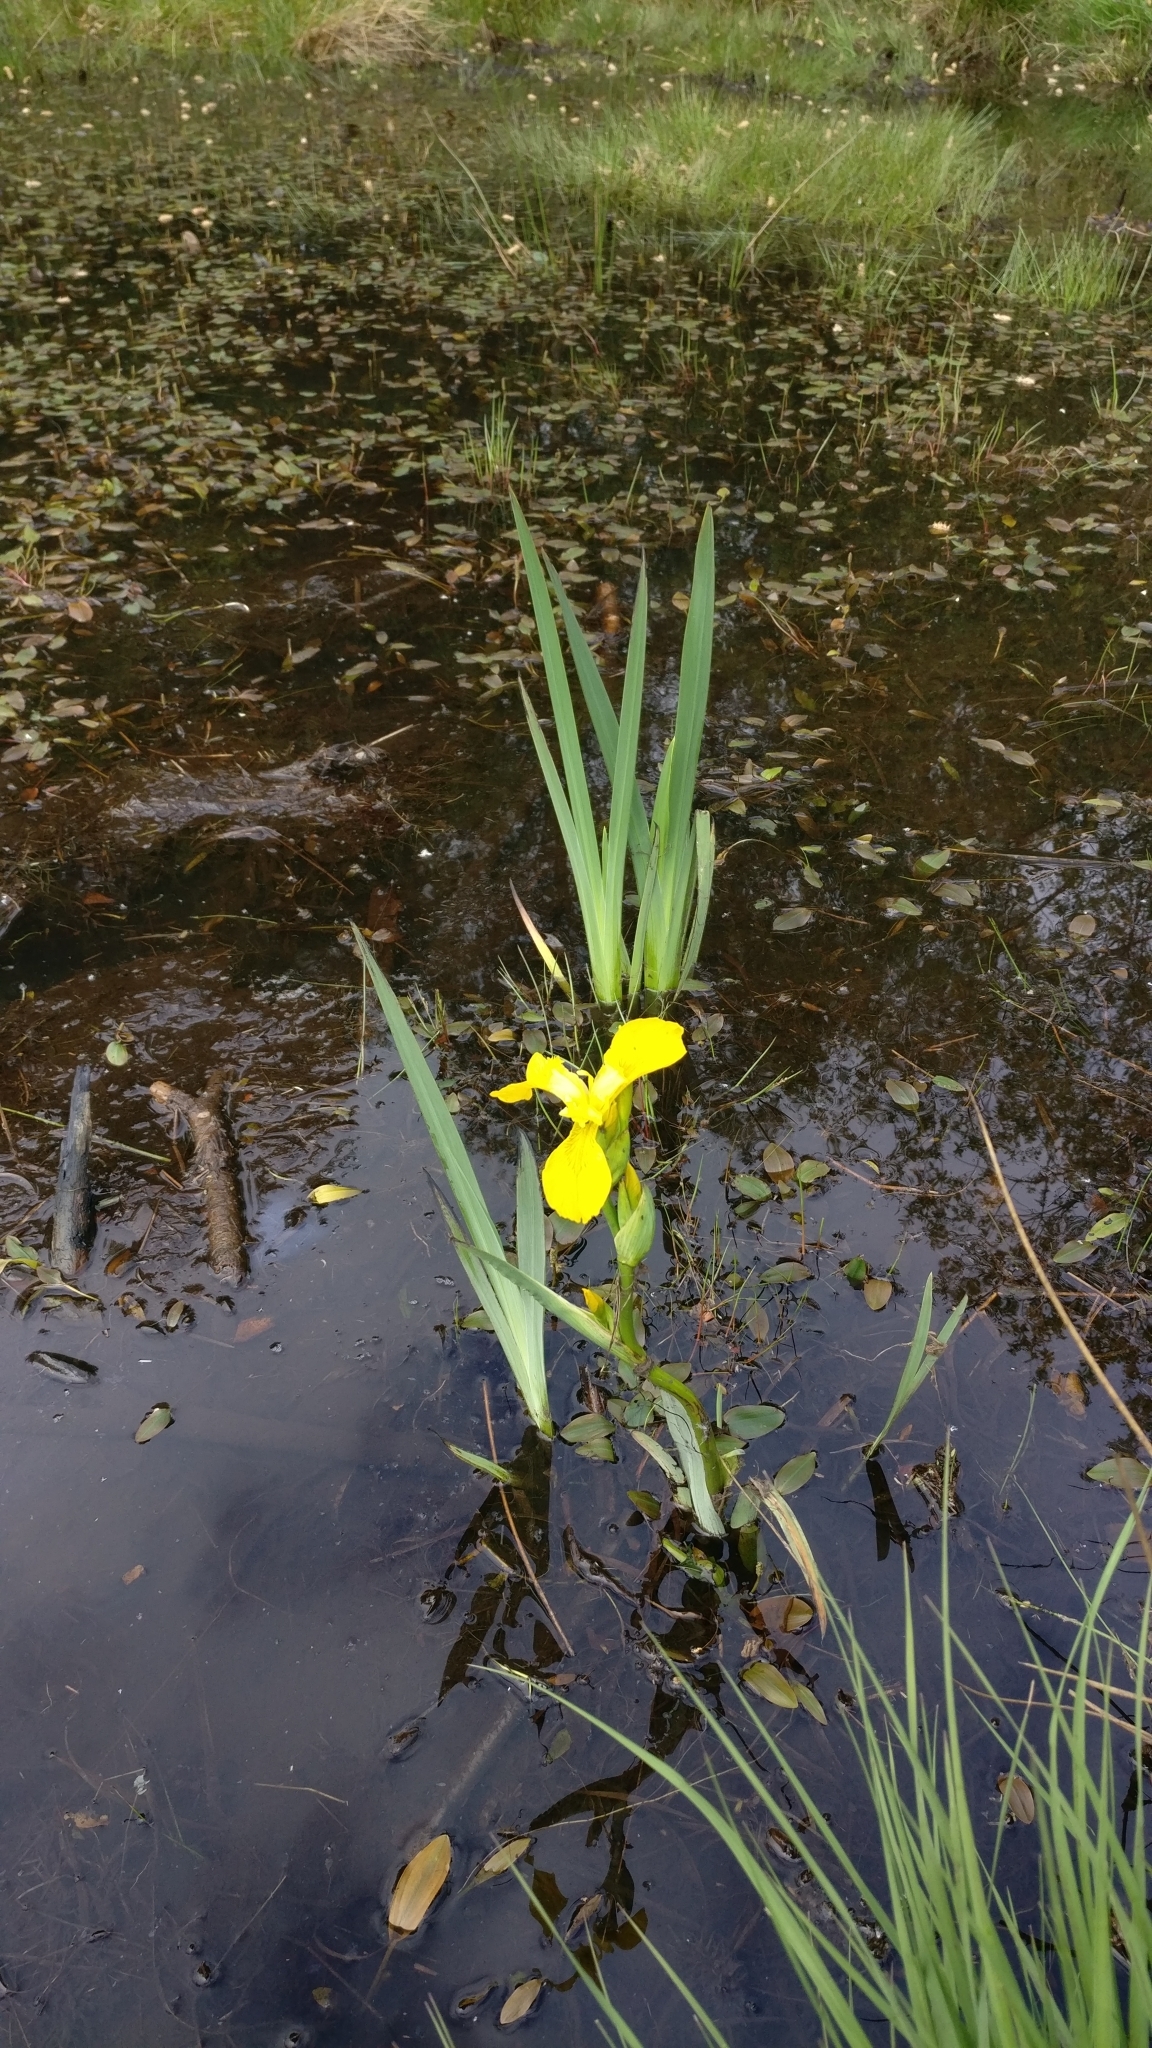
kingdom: Plantae
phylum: Tracheophyta
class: Liliopsida
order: Asparagales
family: Iridaceae
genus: Iris
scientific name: Iris pseudacorus
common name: Yellow flag
